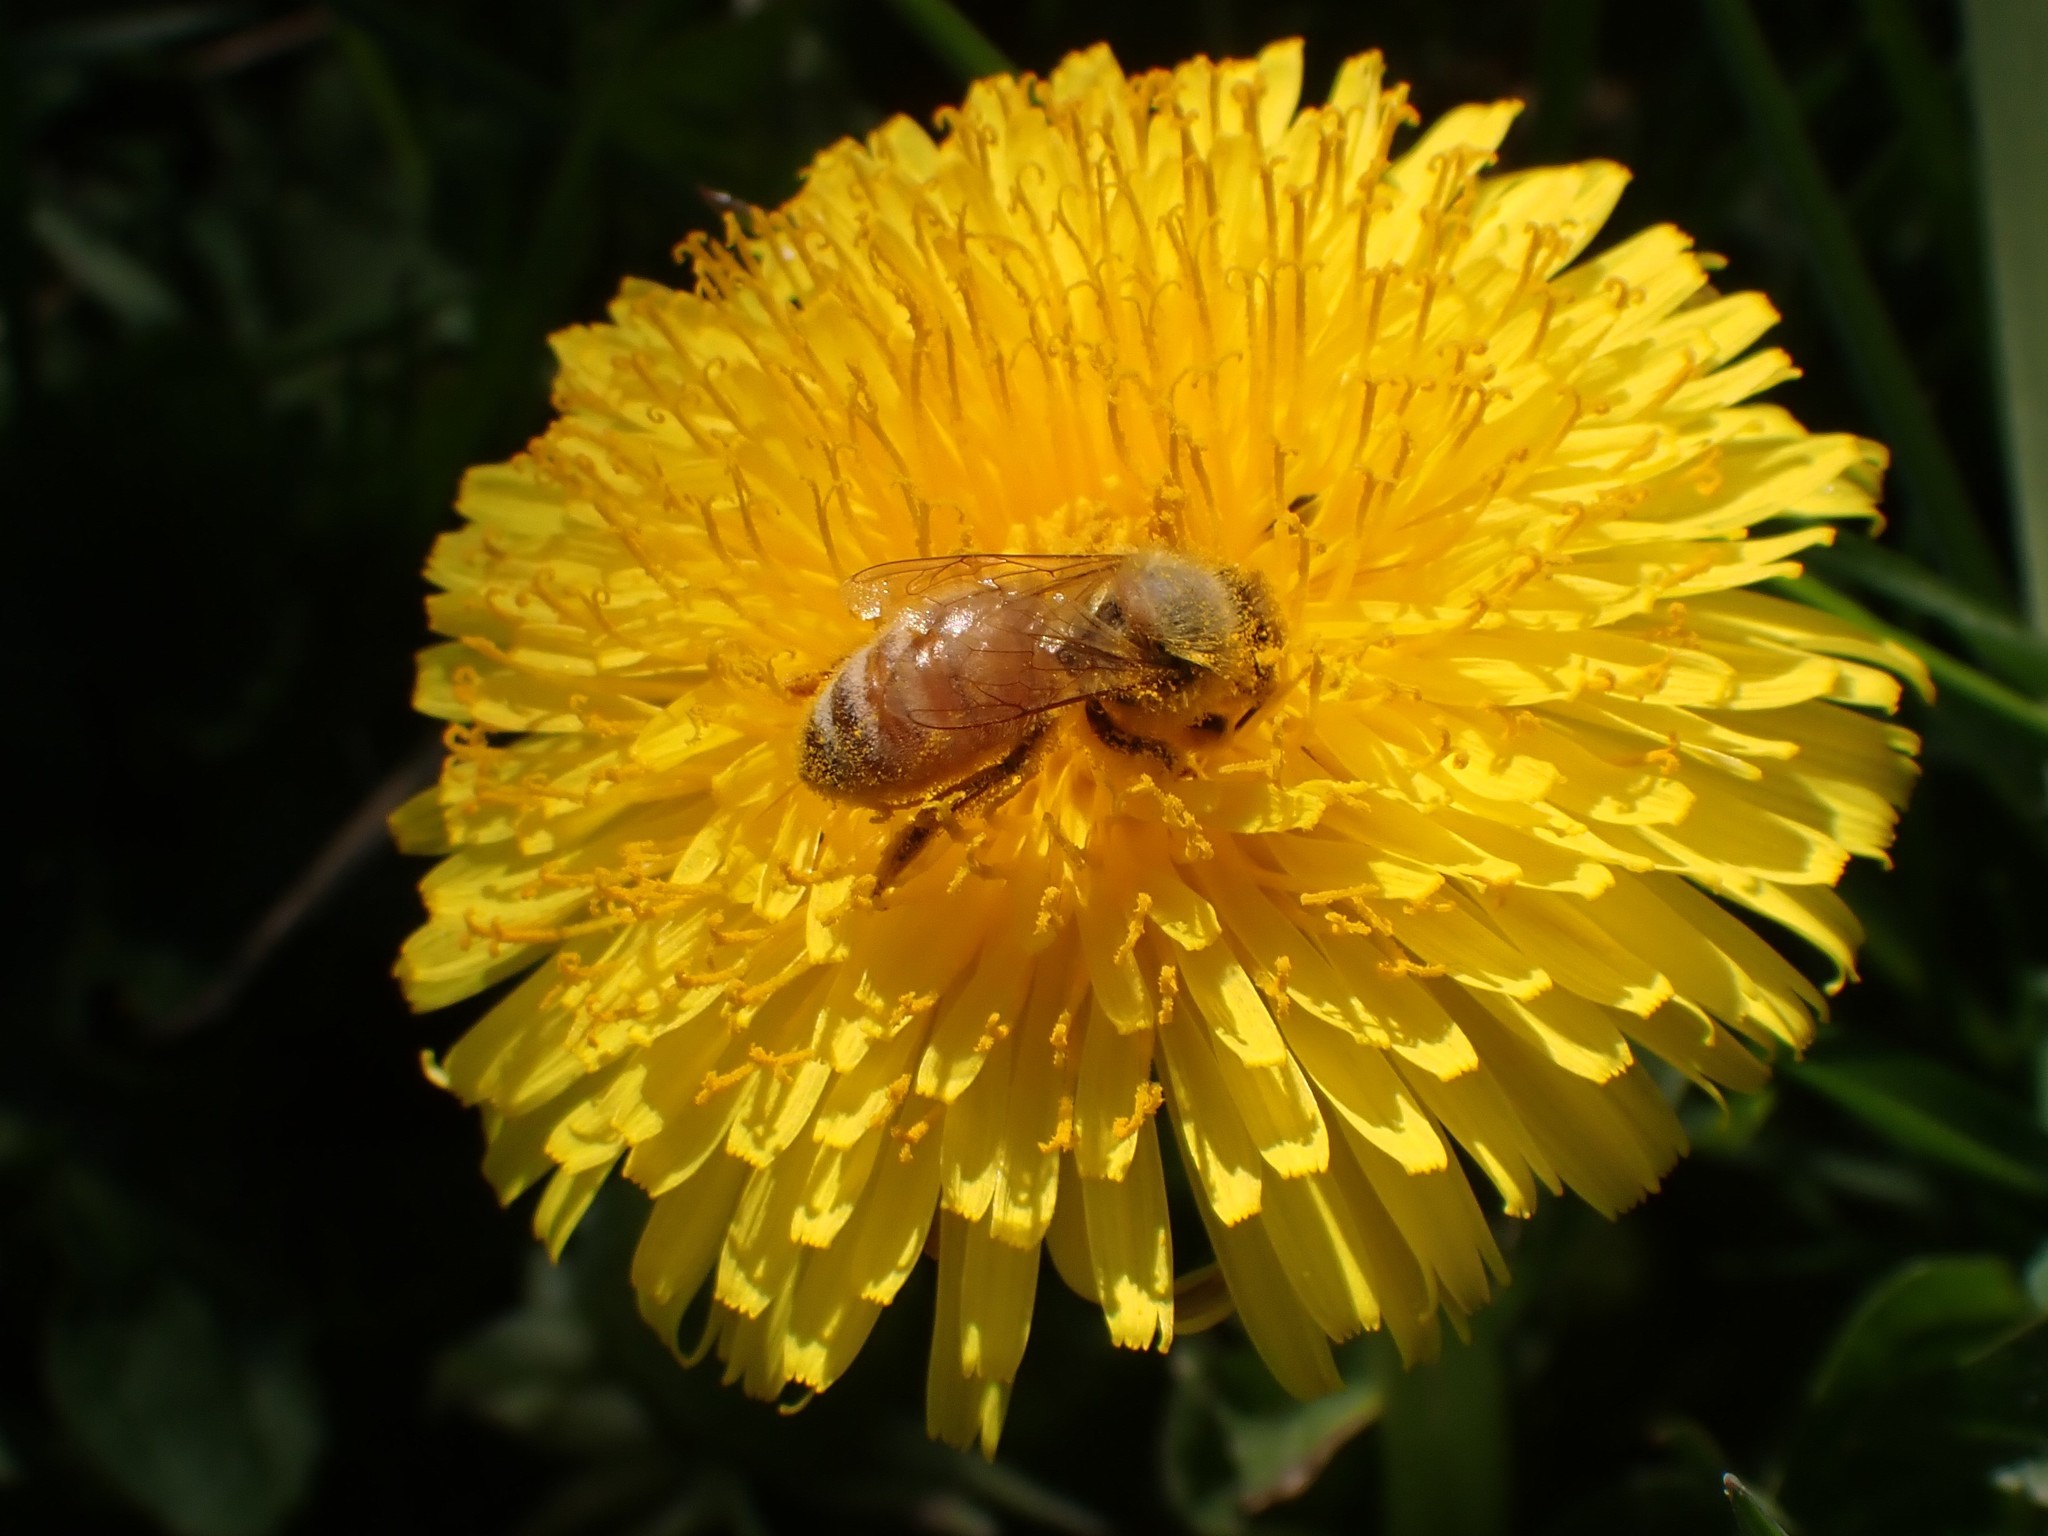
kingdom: Animalia
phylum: Arthropoda
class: Insecta
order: Hymenoptera
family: Apidae
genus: Apis
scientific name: Apis mellifera
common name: Honey bee
